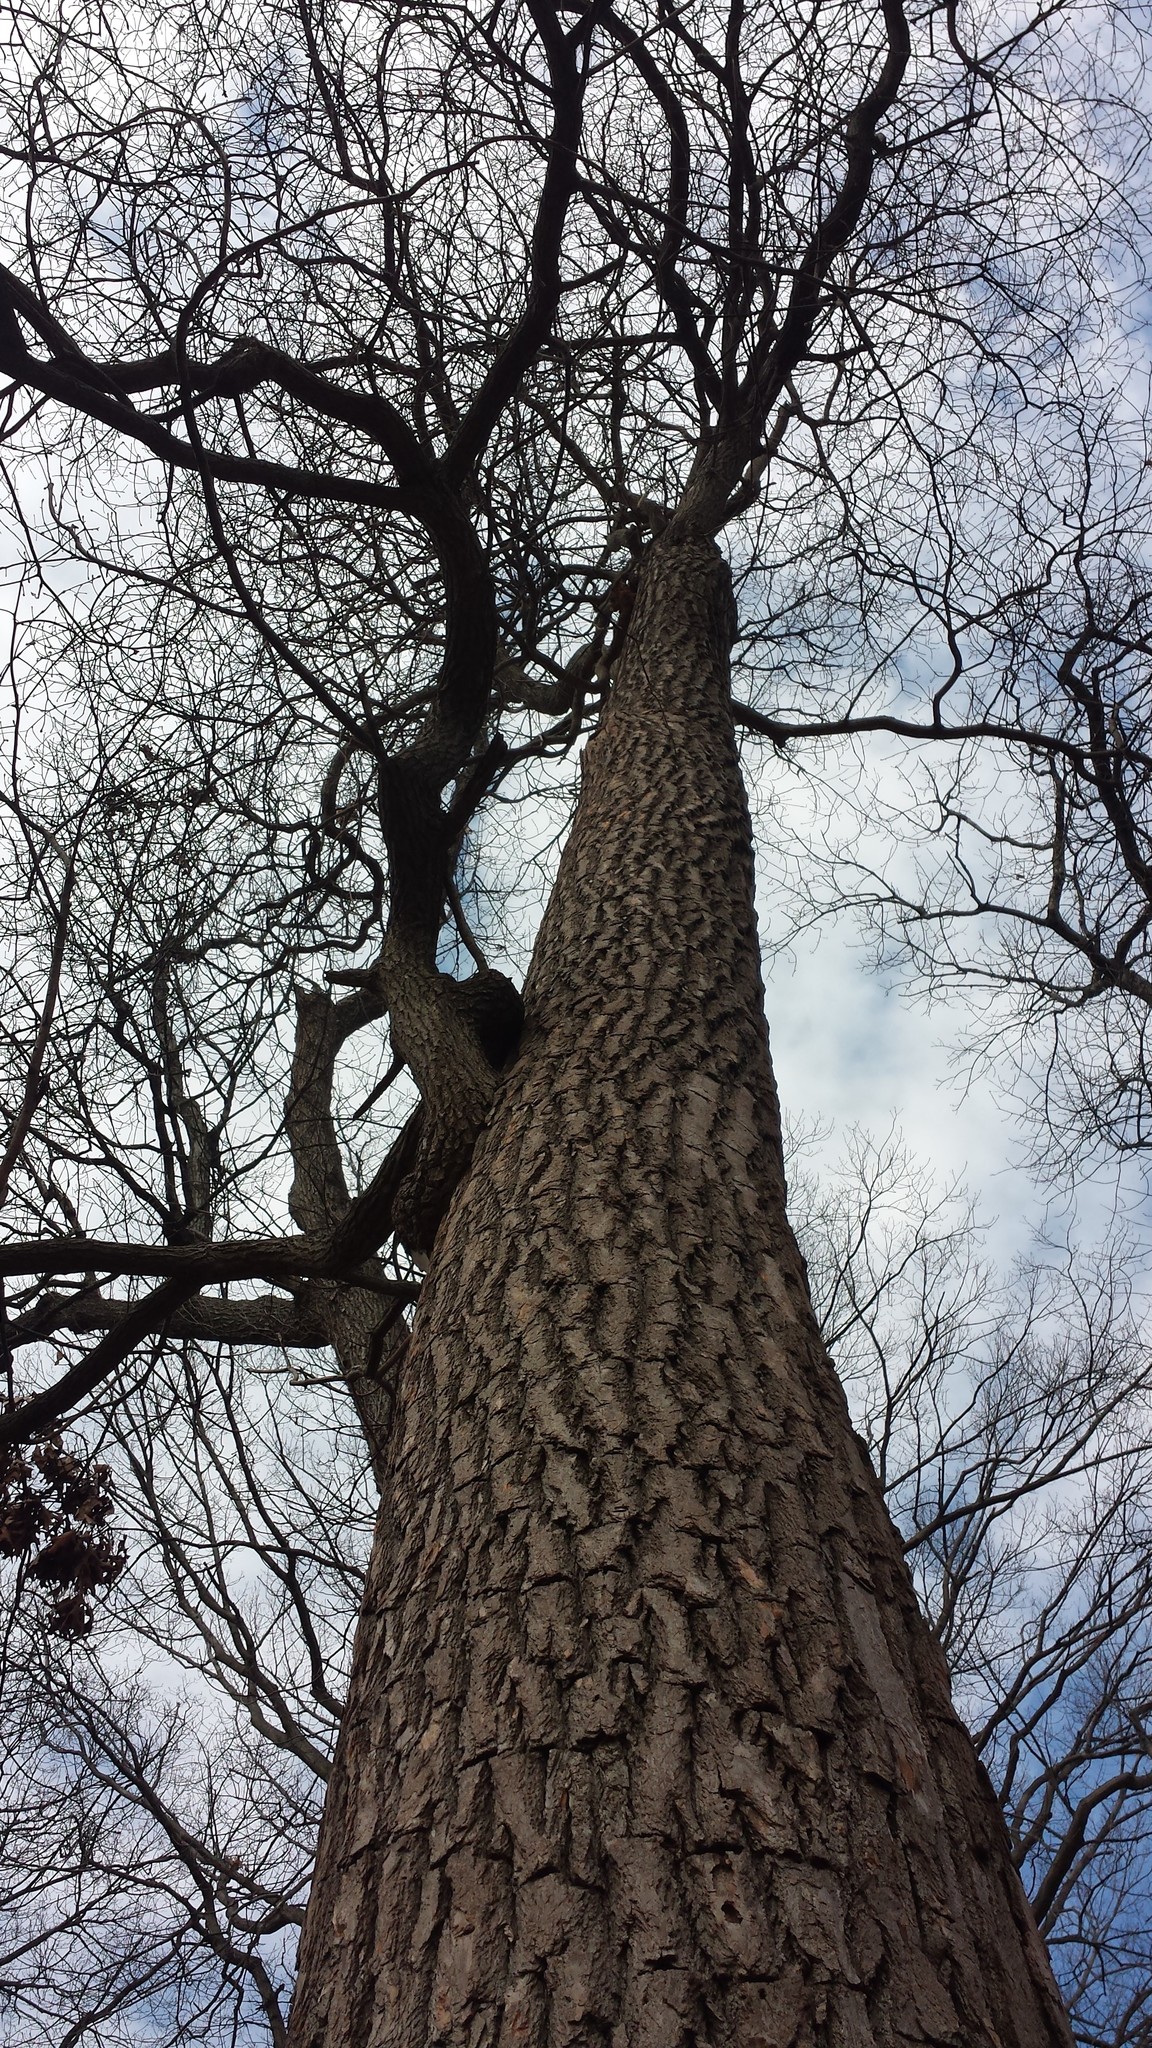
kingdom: Plantae
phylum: Tracheophyta
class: Magnoliopsida
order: Laurales
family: Lauraceae
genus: Sassafras
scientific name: Sassafras albidum
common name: Sassafras
